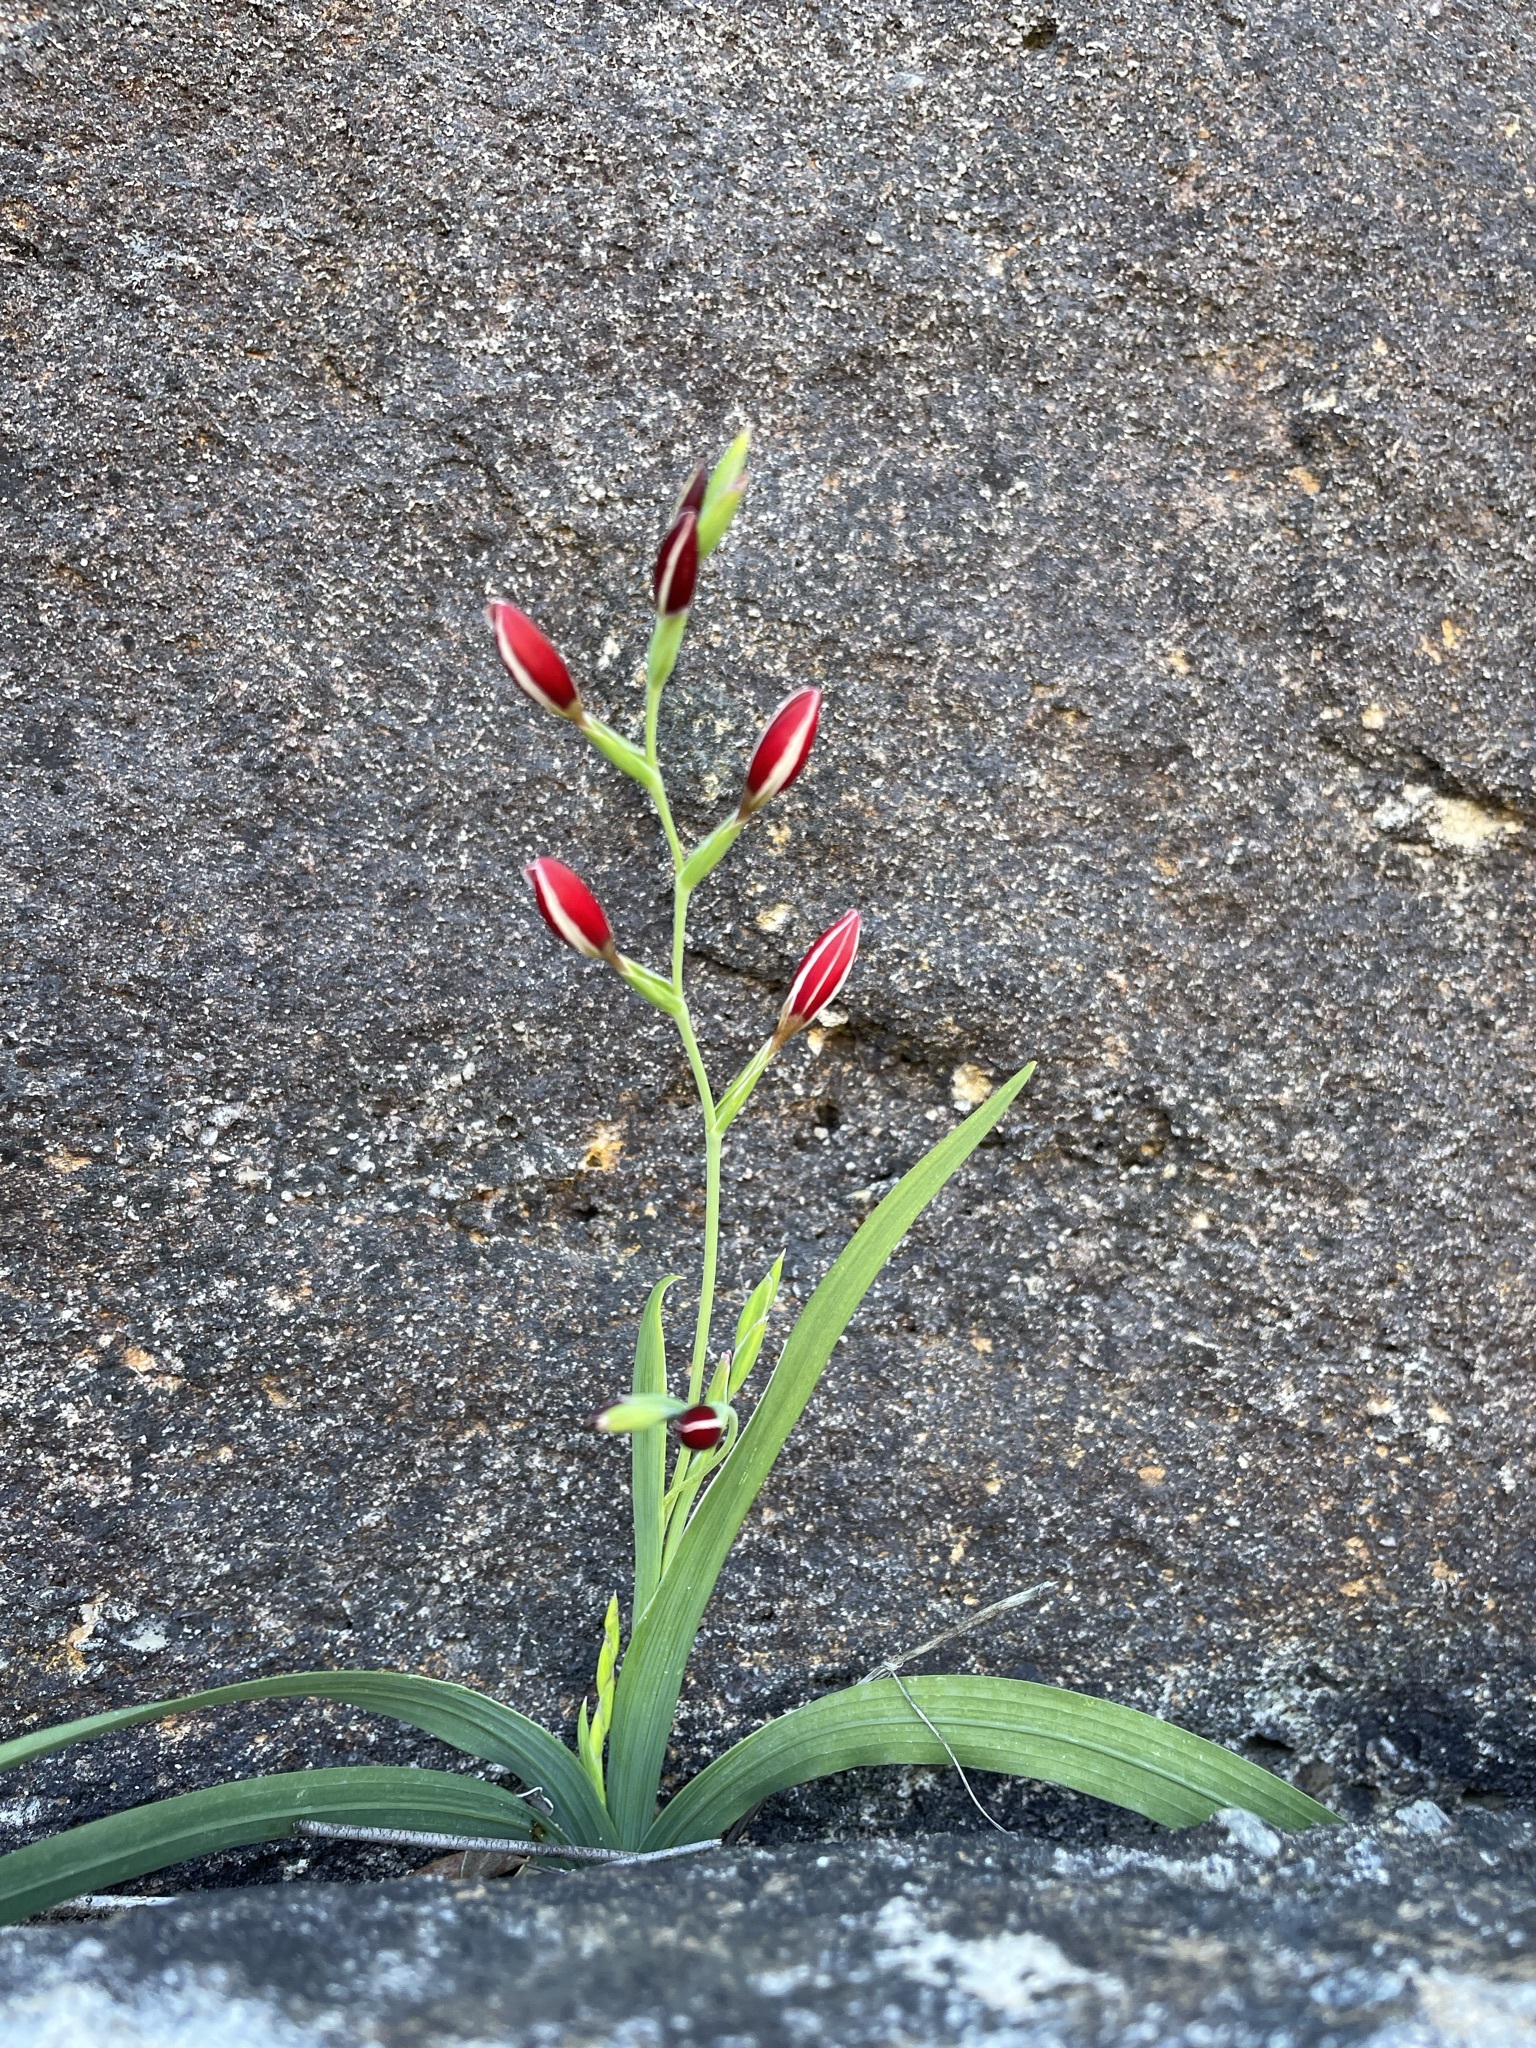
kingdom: Plantae
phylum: Tracheophyta
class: Liliopsida
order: Asparagales
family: Iridaceae
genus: Hesperantha
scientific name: Hesperantha falcata
